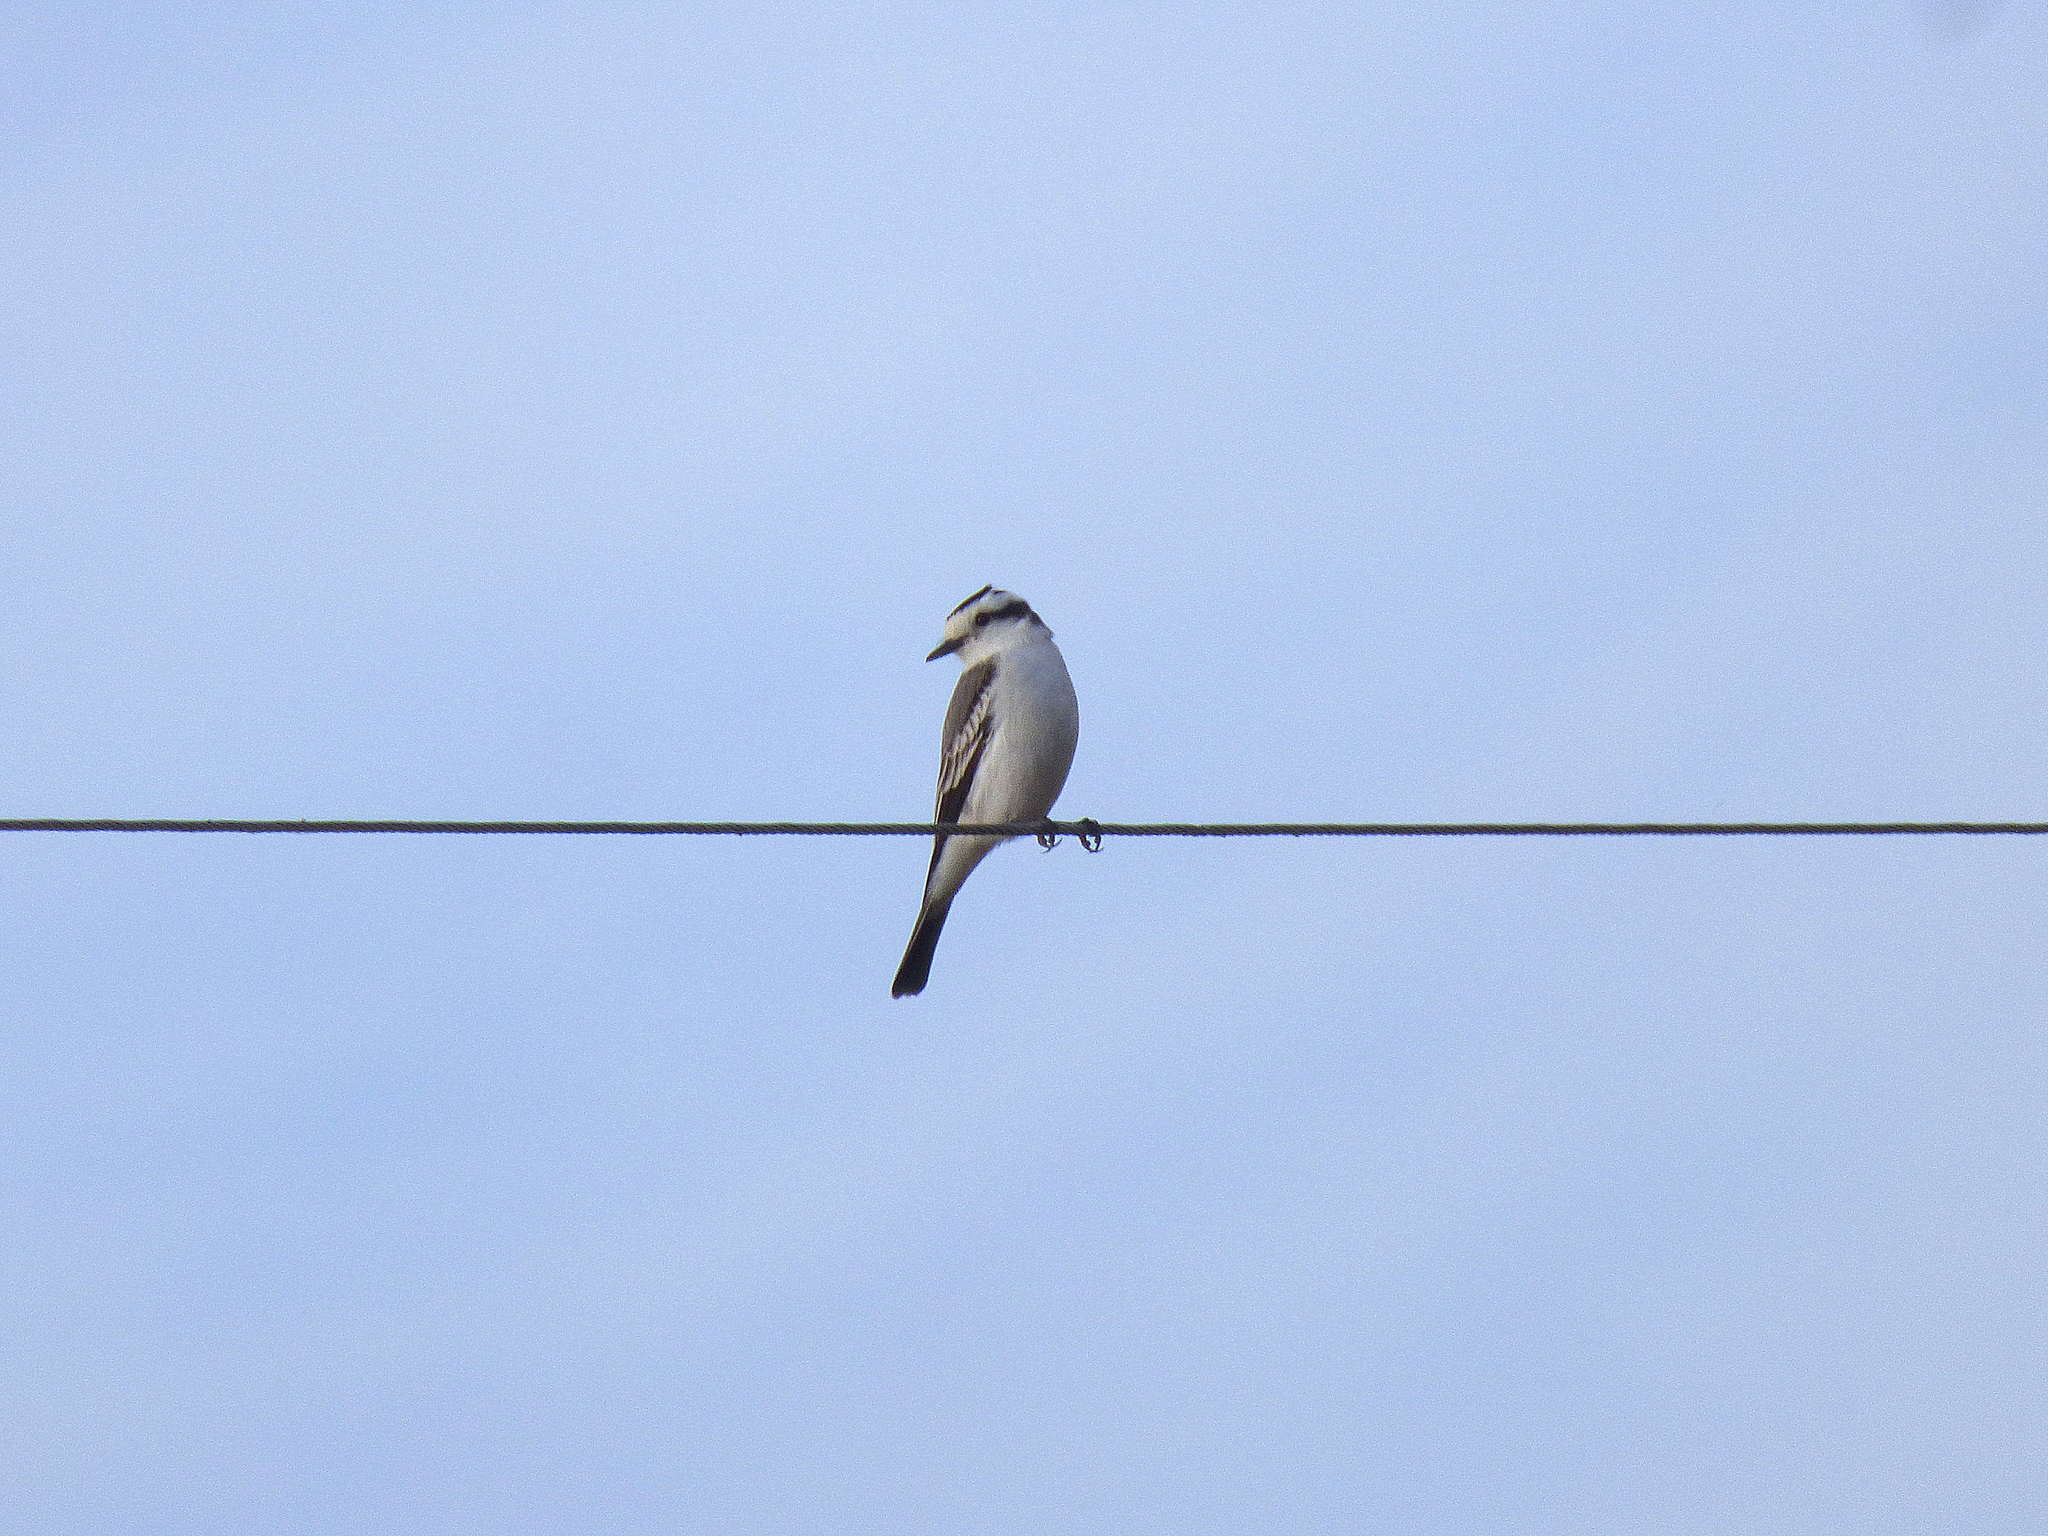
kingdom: Animalia
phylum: Chordata
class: Aves
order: Passeriformes
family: Tyrannidae
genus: Xolmis
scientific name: Xolmis coronatus
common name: Black-crowned monjita
